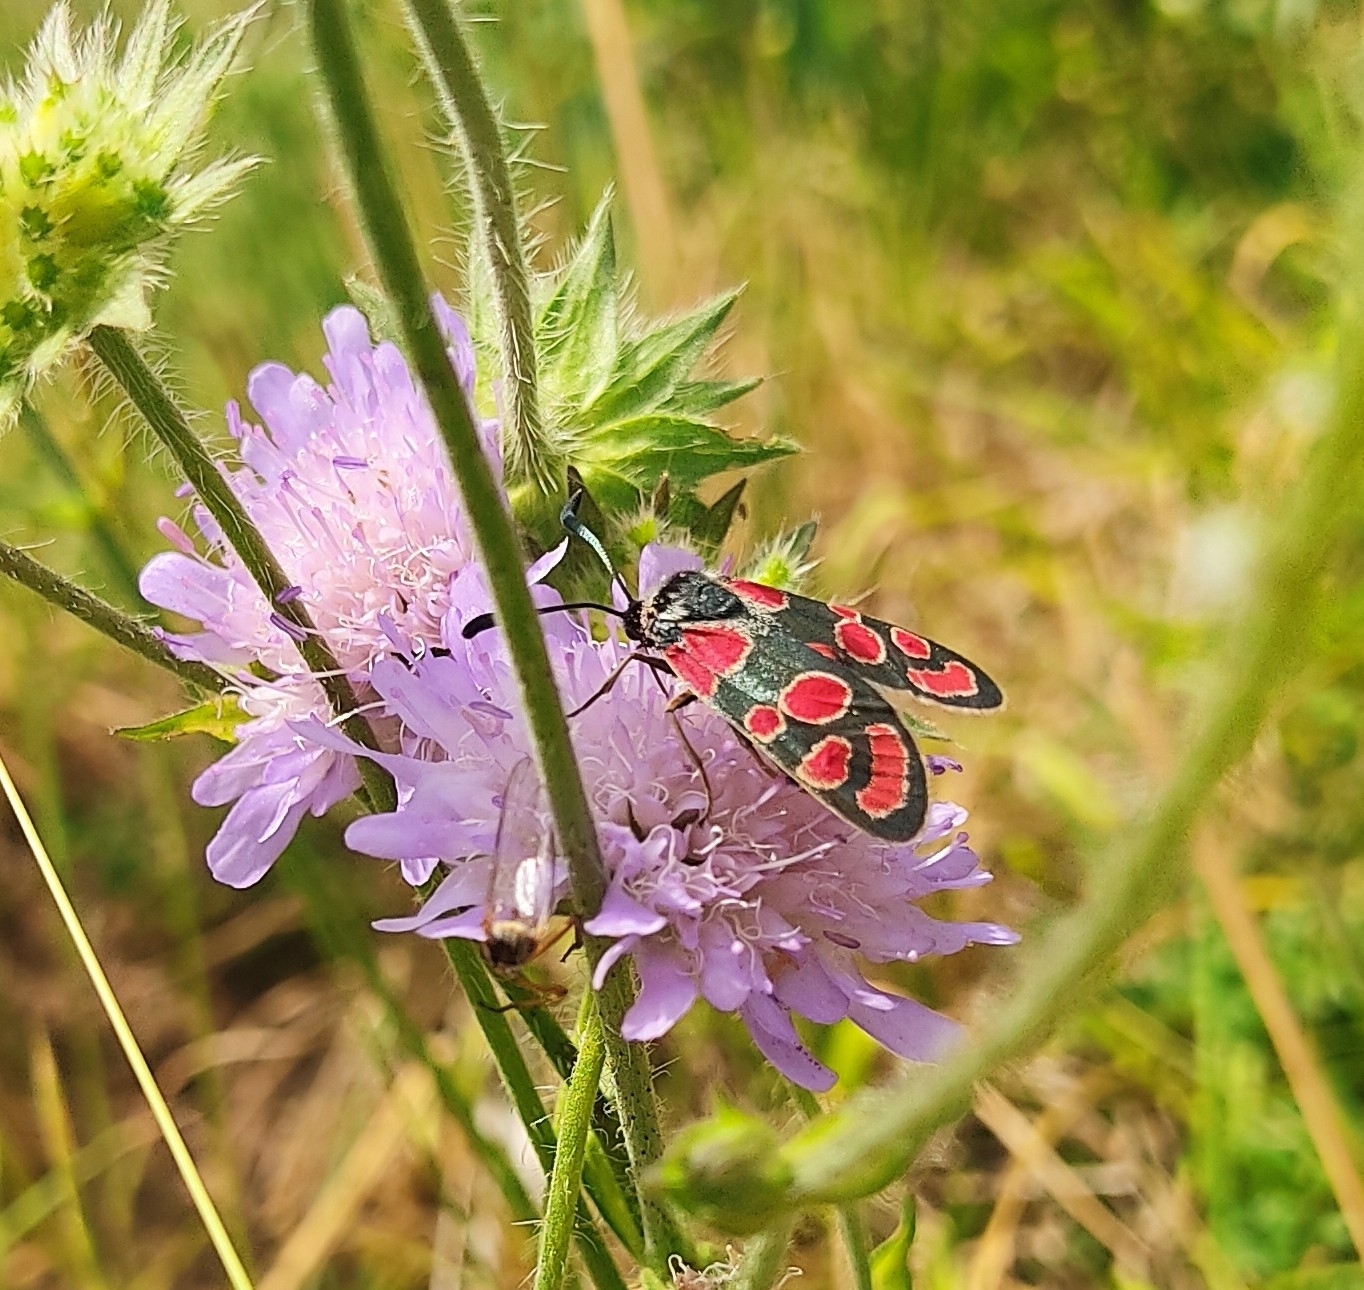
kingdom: Animalia
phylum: Arthropoda
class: Insecta
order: Lepidoptera
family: Zygaenidae
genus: Zygaena
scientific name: Zygaena carniolica
